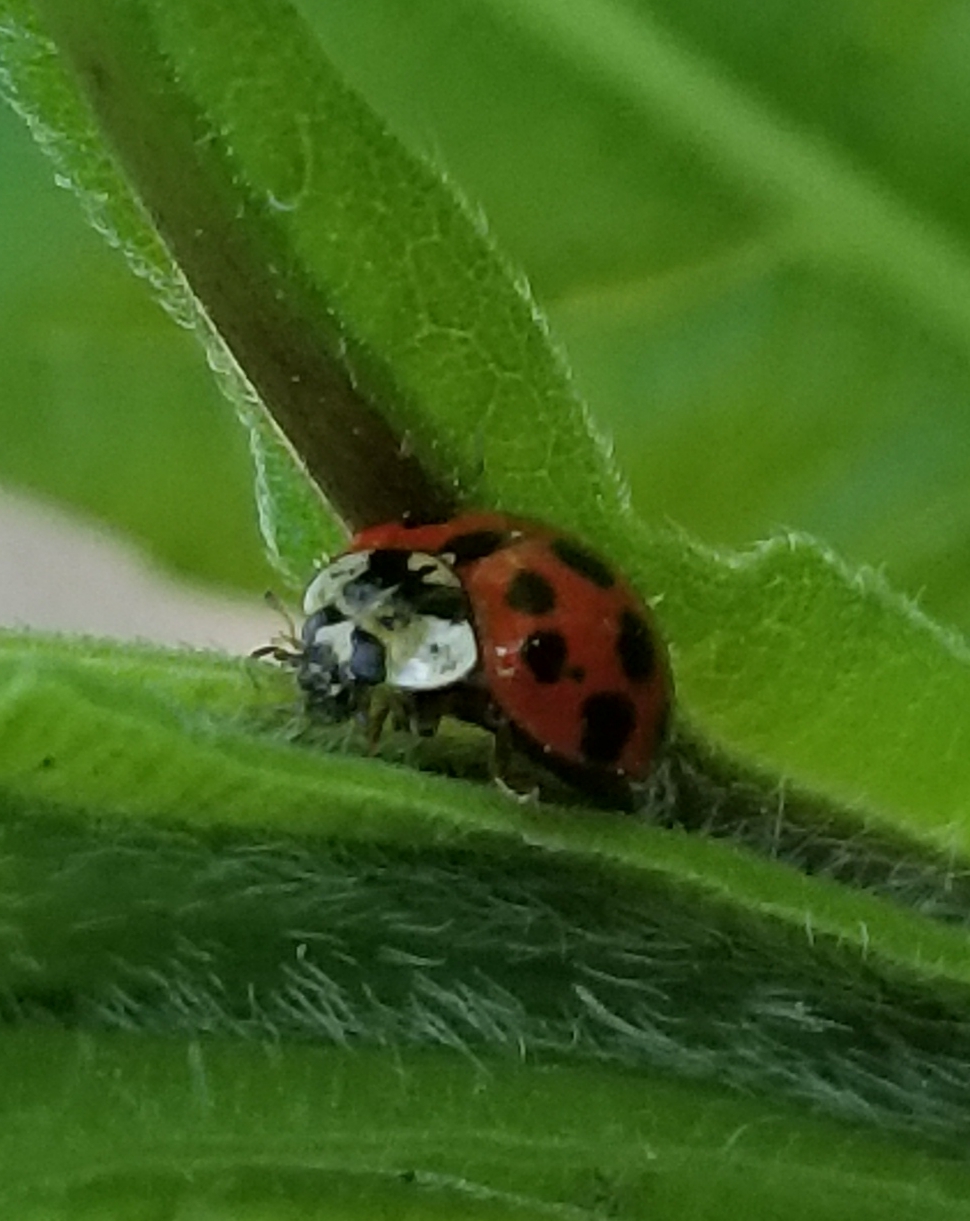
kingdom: Animalia
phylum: Arthropoda
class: Insecta
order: Coleoptera
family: Coccinellidae
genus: Harmonia
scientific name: Harmonia axyridis
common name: Harlequin ladybird
